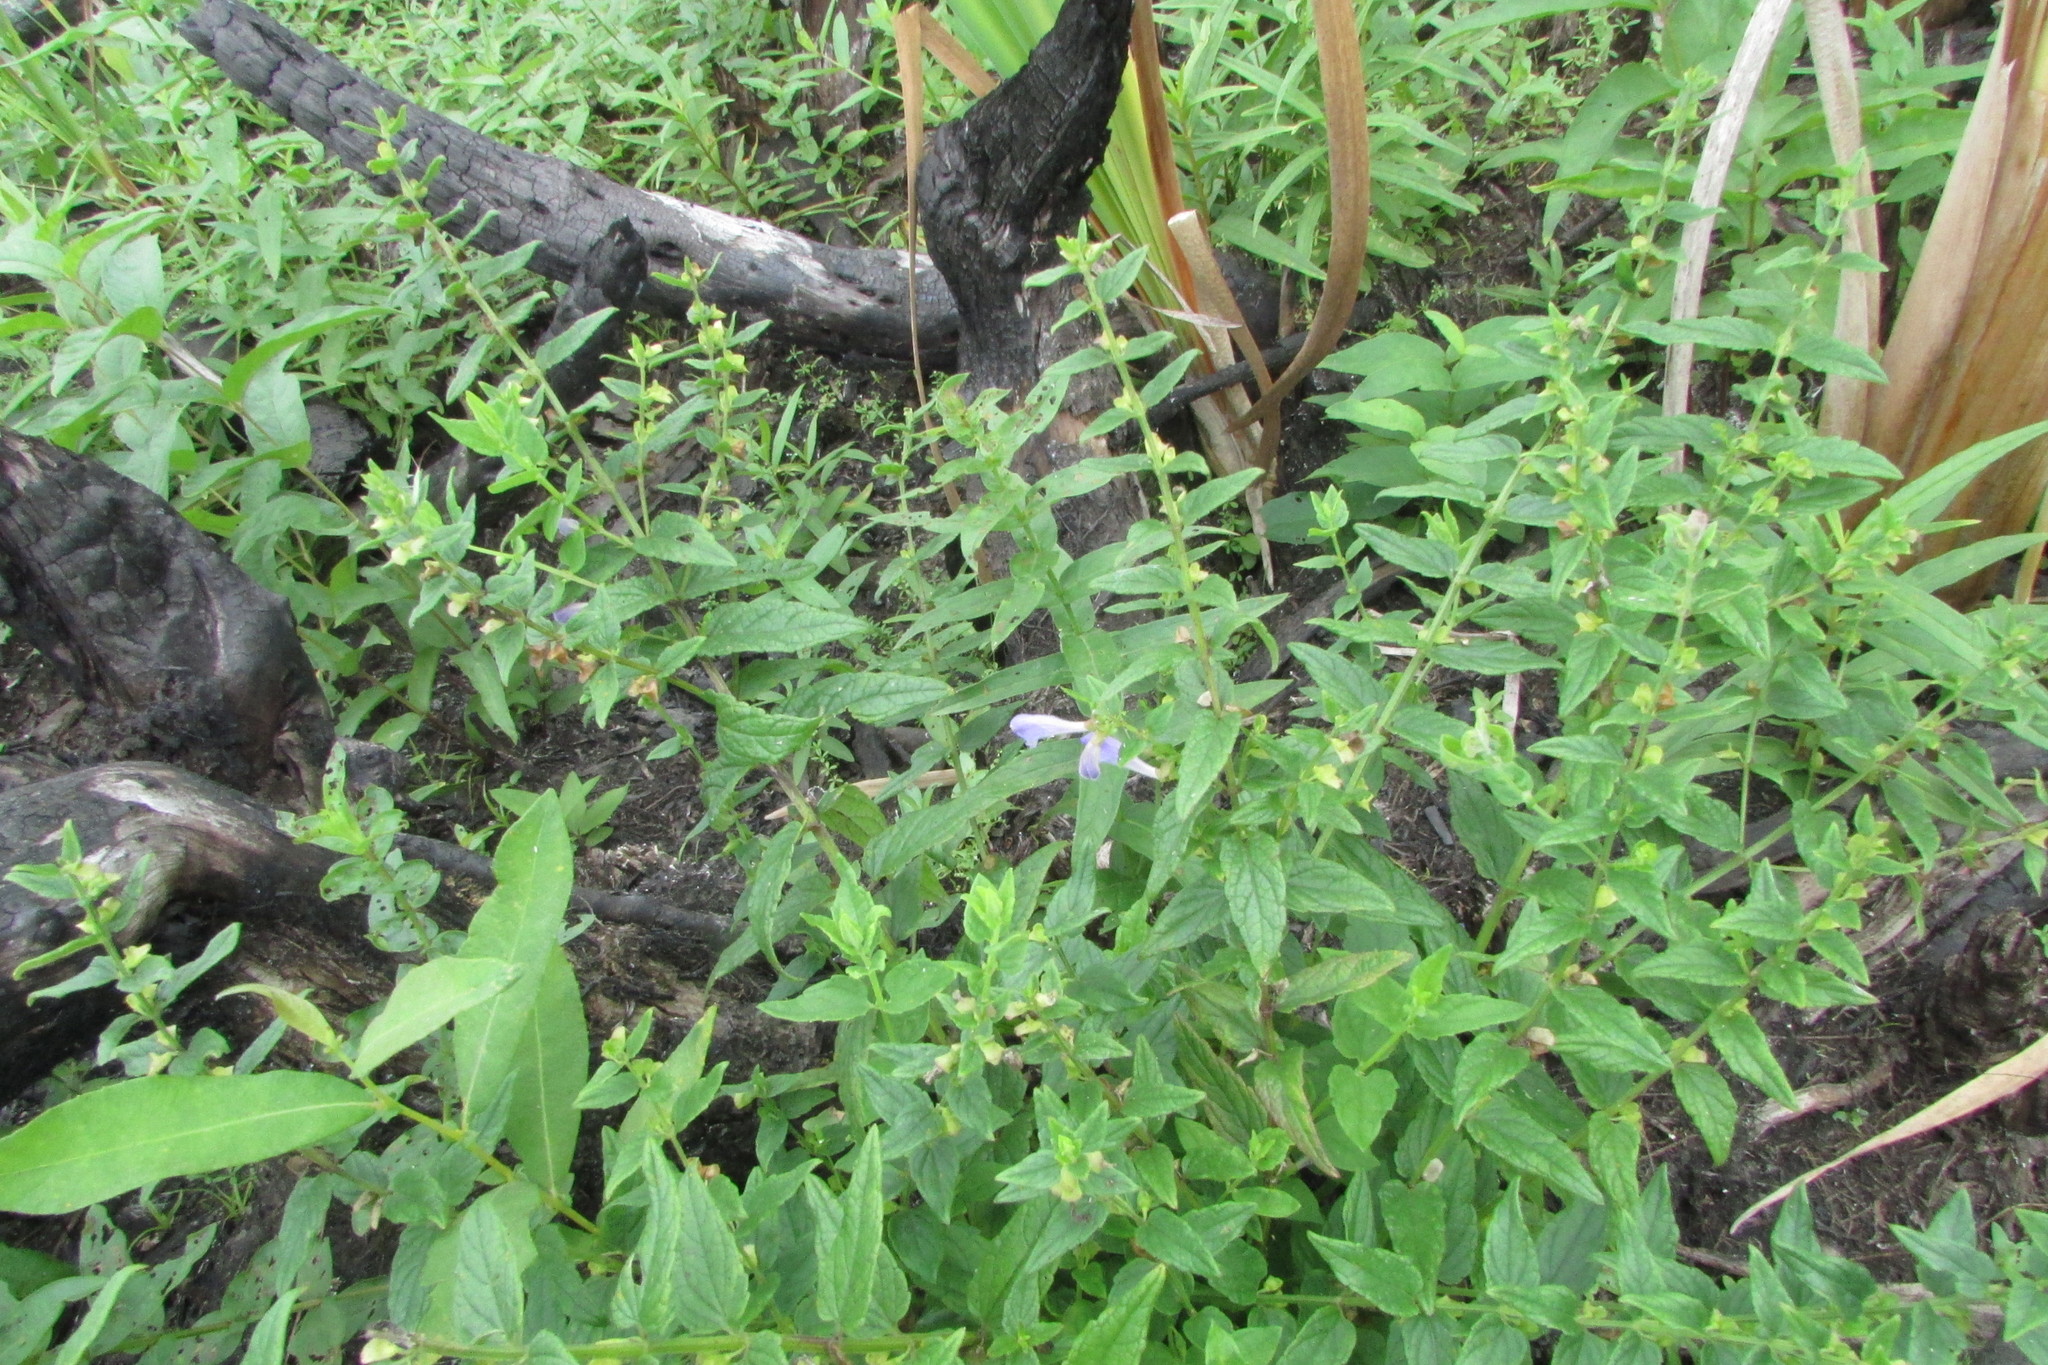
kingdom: Plantae
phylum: Tracheophyta
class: Magnoliopsida
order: Lamiales
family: Lamiaceae
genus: Scutellaria
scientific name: Scutellaria galericulata
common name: Skullcap
